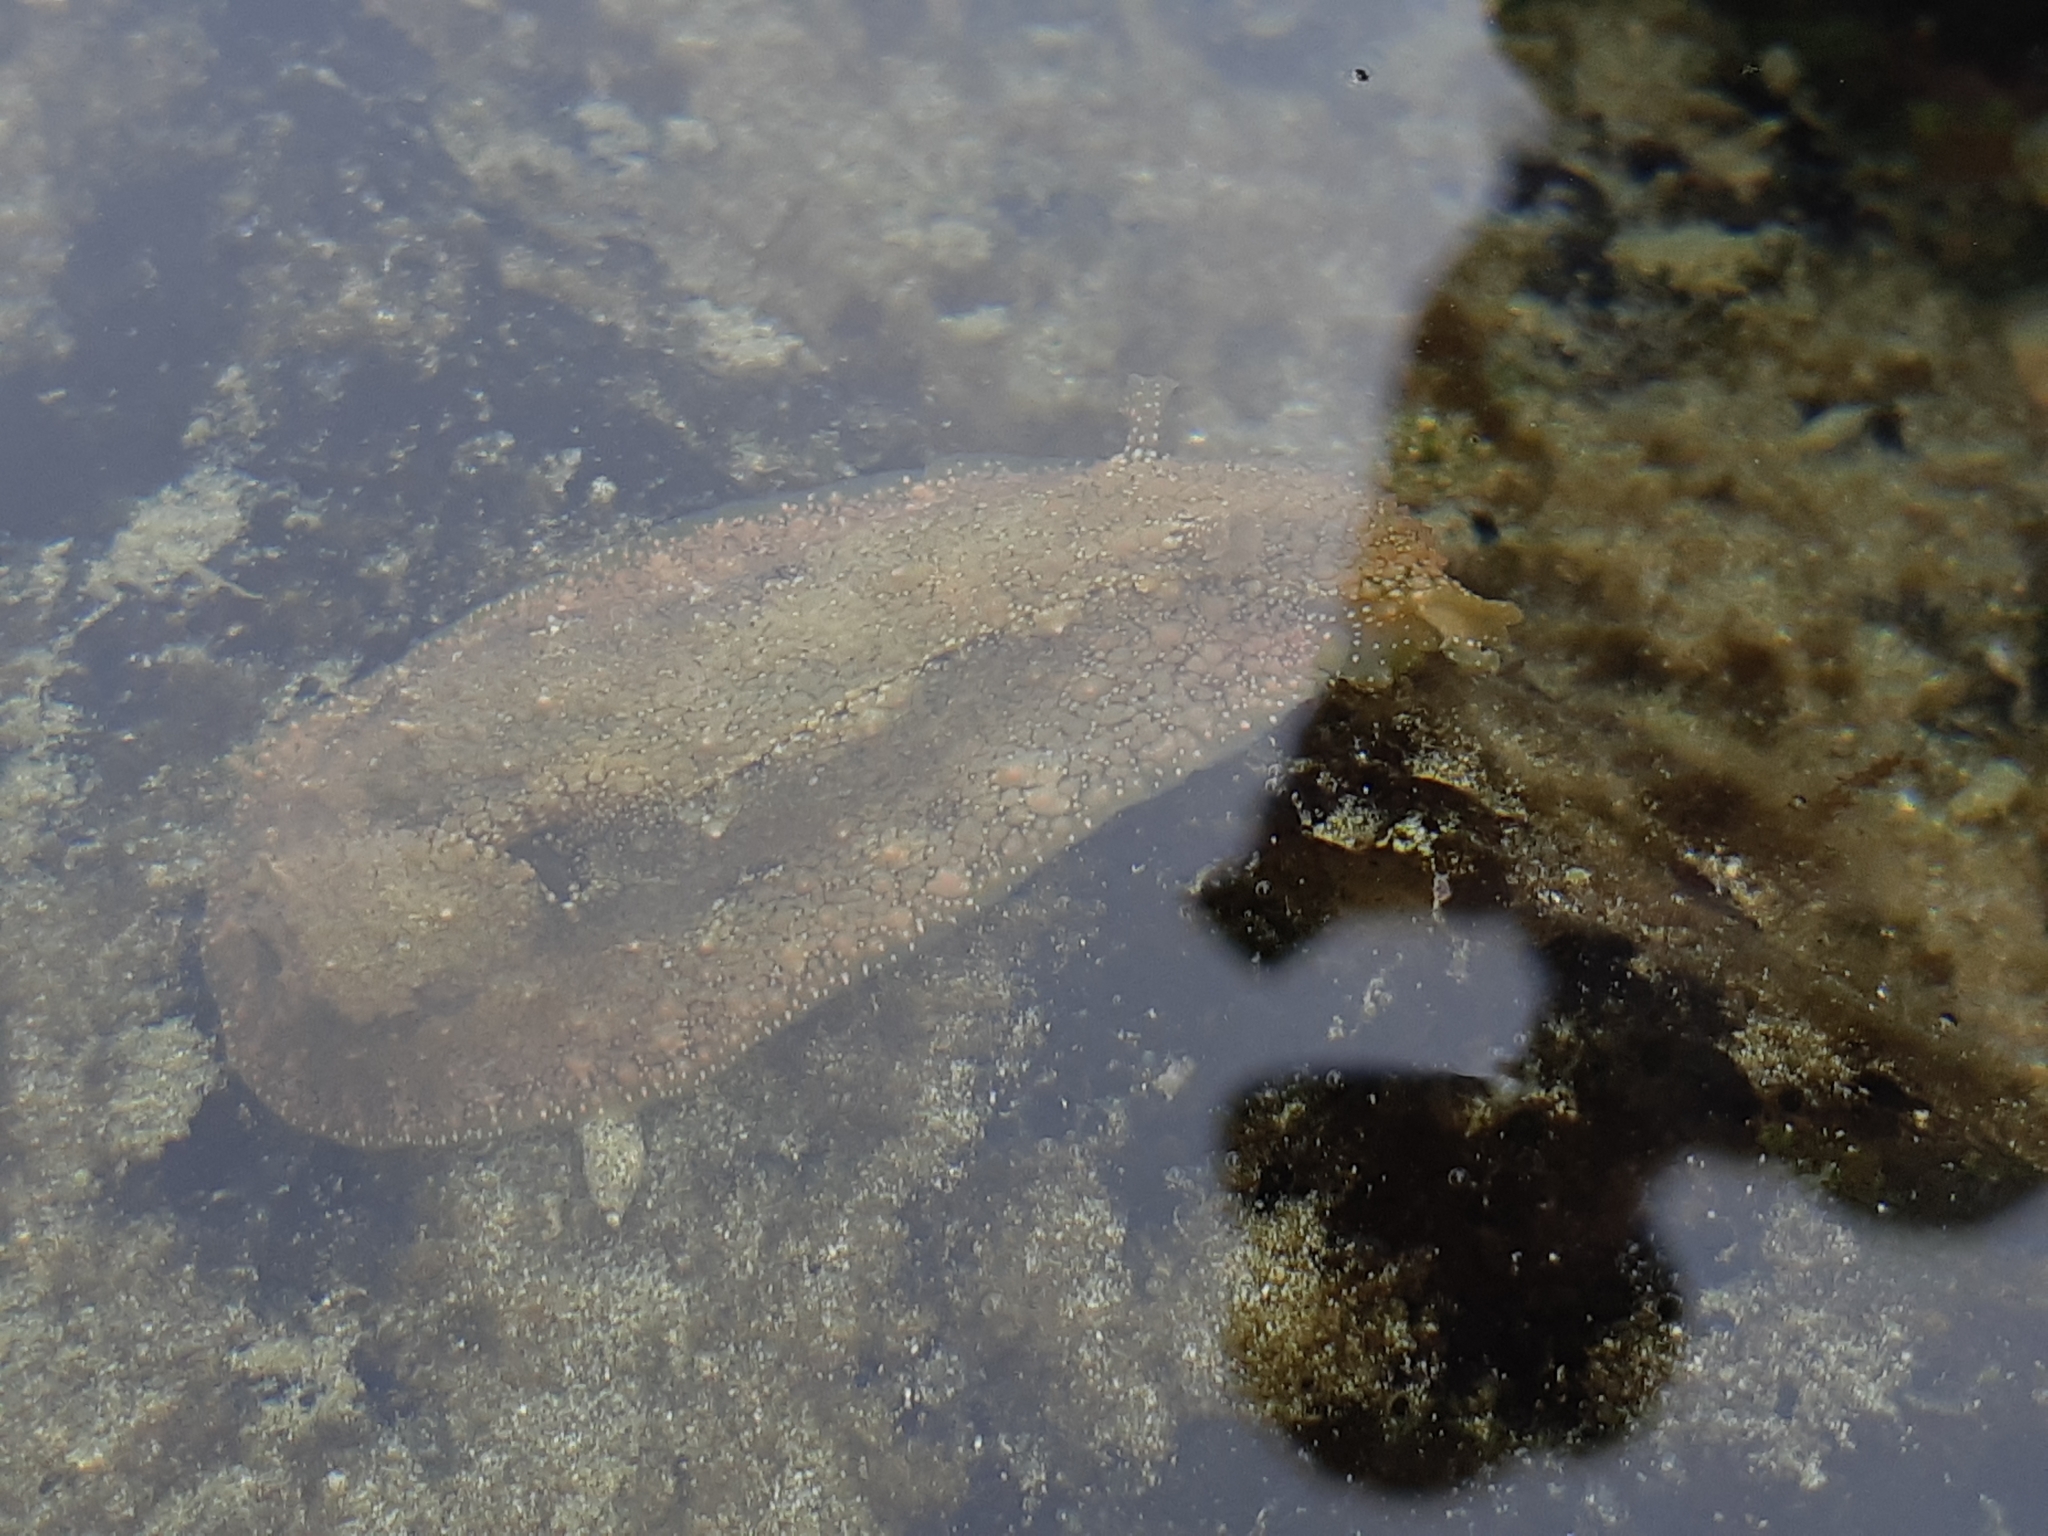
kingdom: Animalia
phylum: Mollusca
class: Gastropoda
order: Aplysiida
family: Aplysiidae
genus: Dolabrifera
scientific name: Dolabrifera nicaraguana
